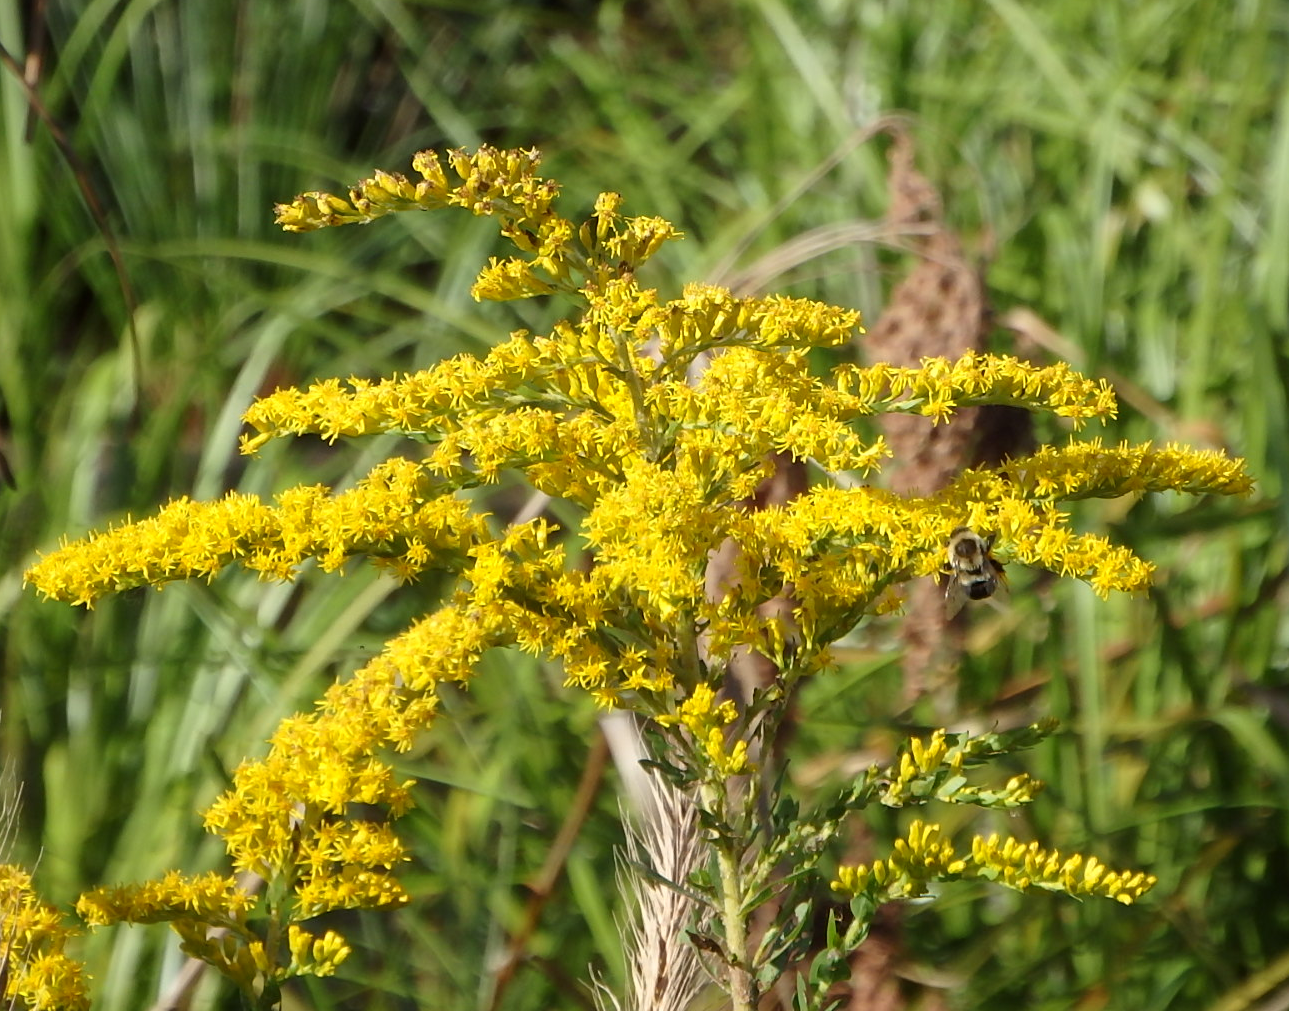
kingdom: Animalia
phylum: Arthropoda
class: Insecta
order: Hymenoptera
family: Apidae
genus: Bombus
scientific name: Bombus impatiens
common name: Common eastern bumble bee
